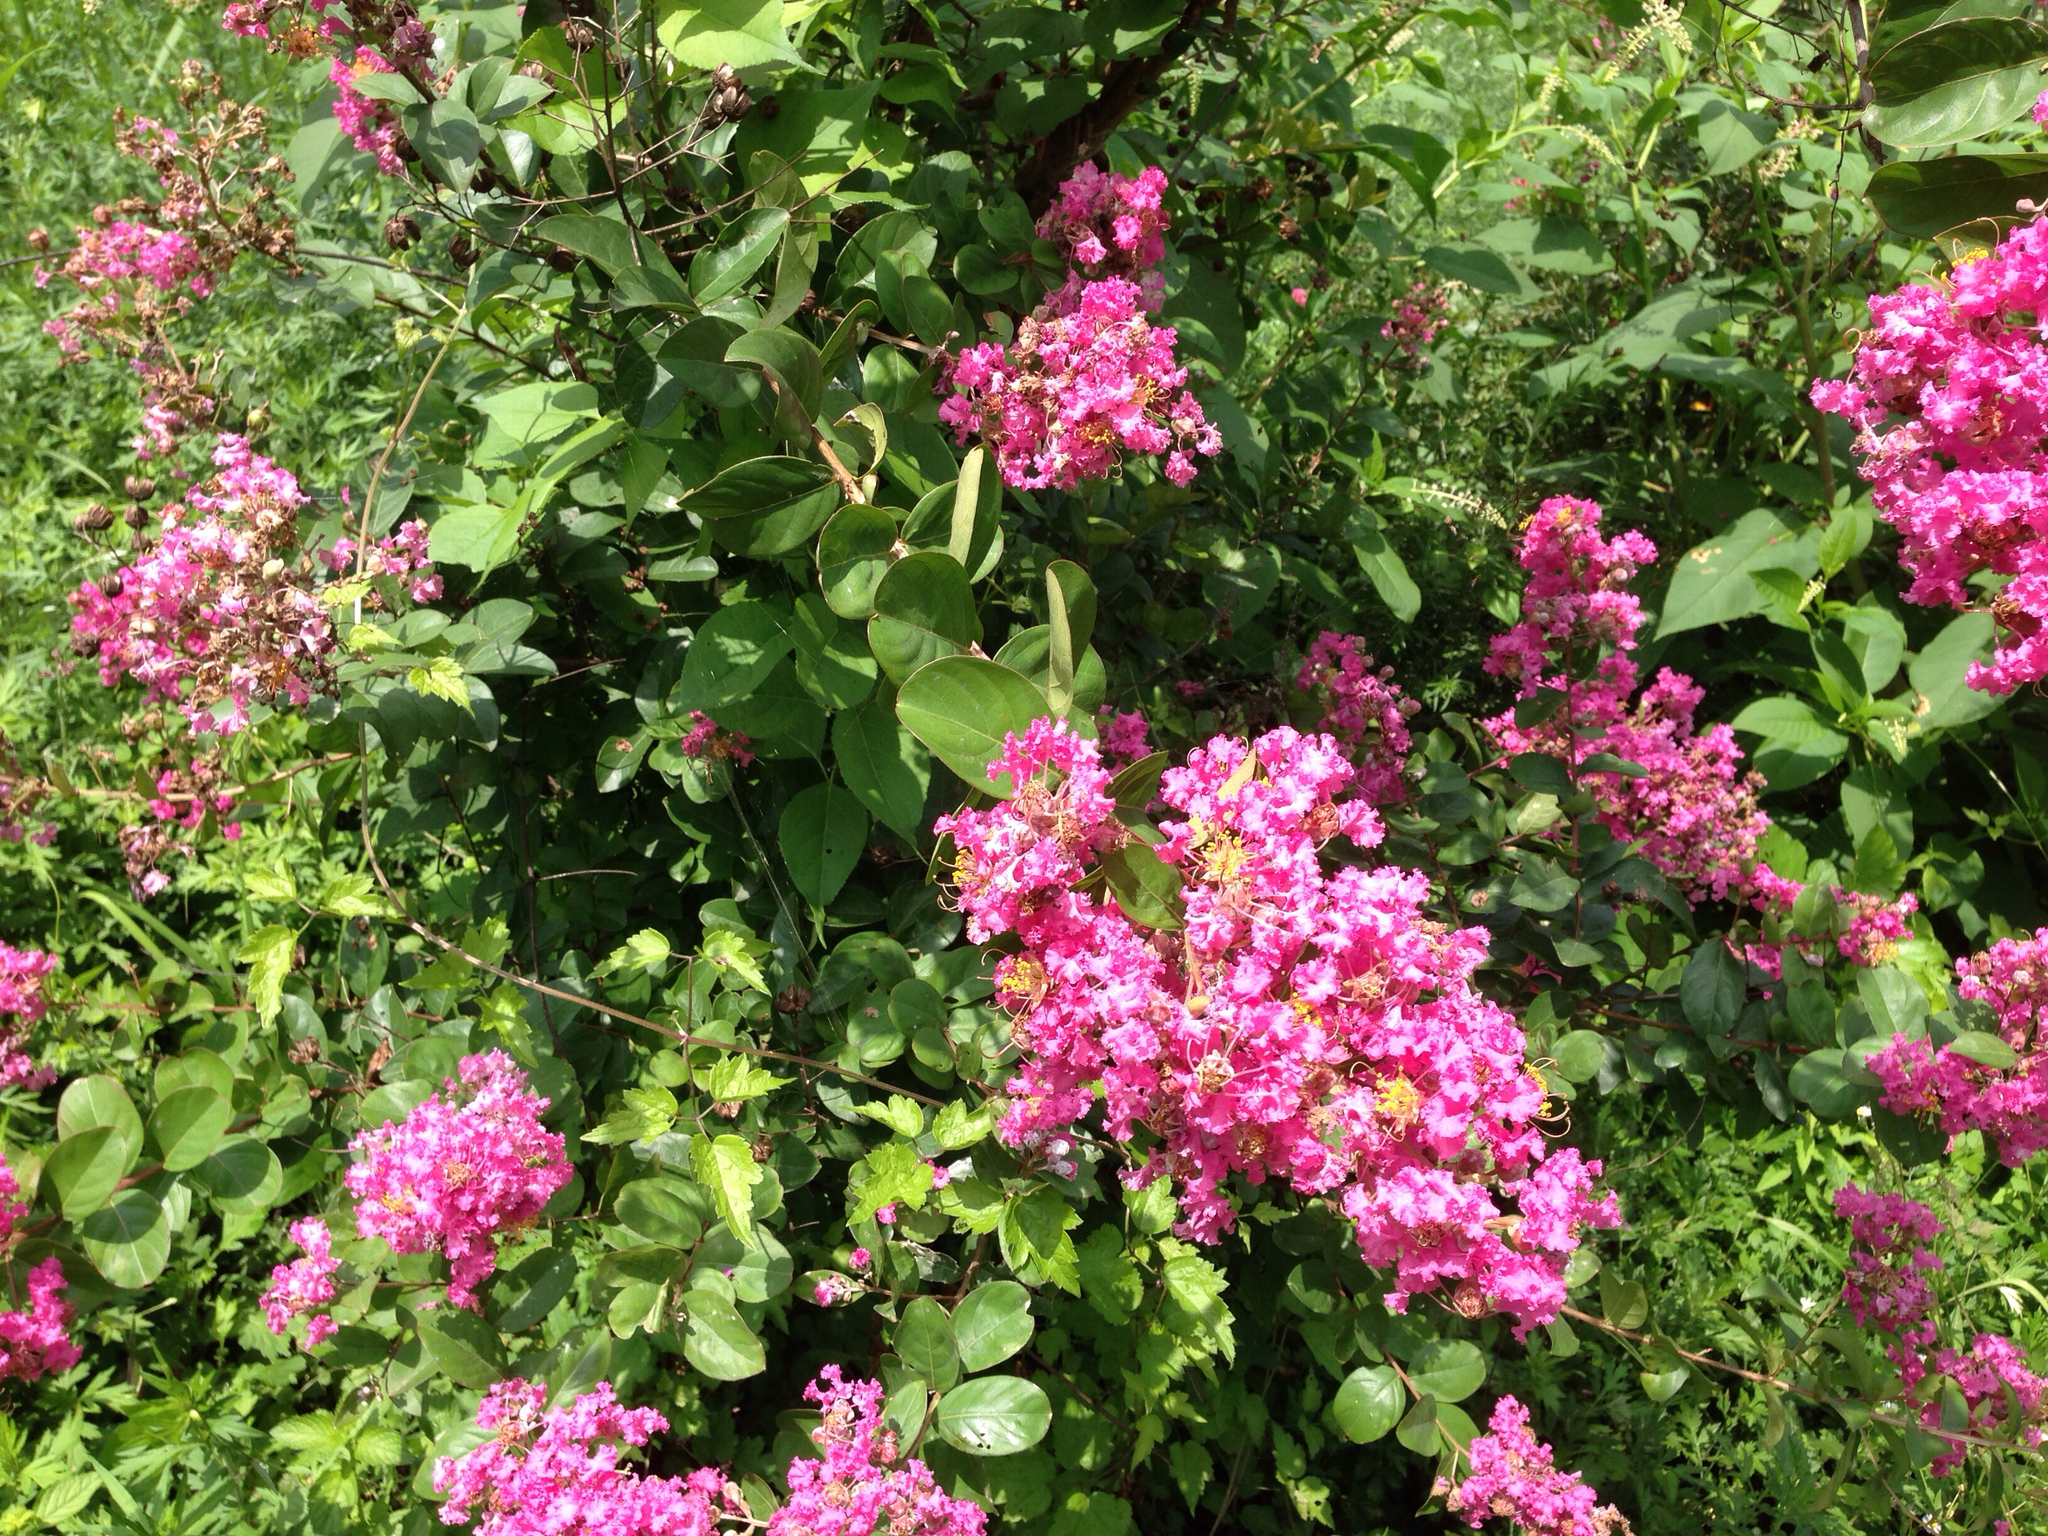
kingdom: Plantae
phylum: Tracheophyta
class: Magnoliopsida
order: Myrtales
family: Lythraceae
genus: Lagerstroemia
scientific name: Lagerstroemia indica
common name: Crape-myrtle
